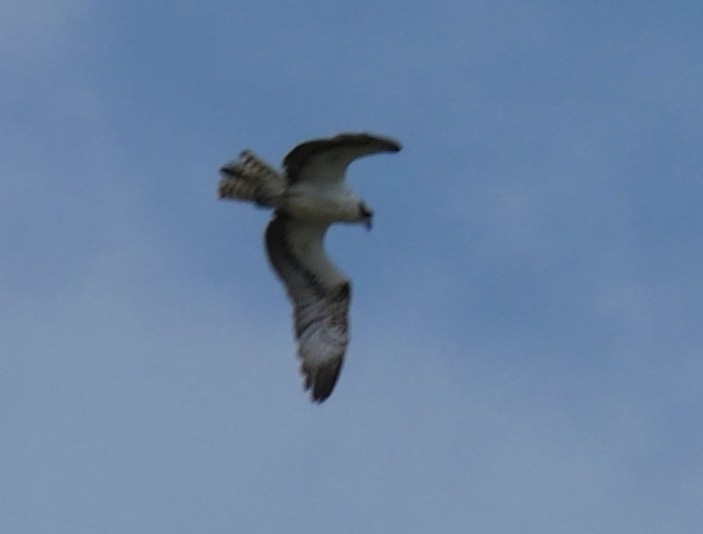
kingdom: Animalia
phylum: Chordata
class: Aves
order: Accipitriformes
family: Pandionidae
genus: Pandion
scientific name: Pandion haliaetus
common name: Osprey
